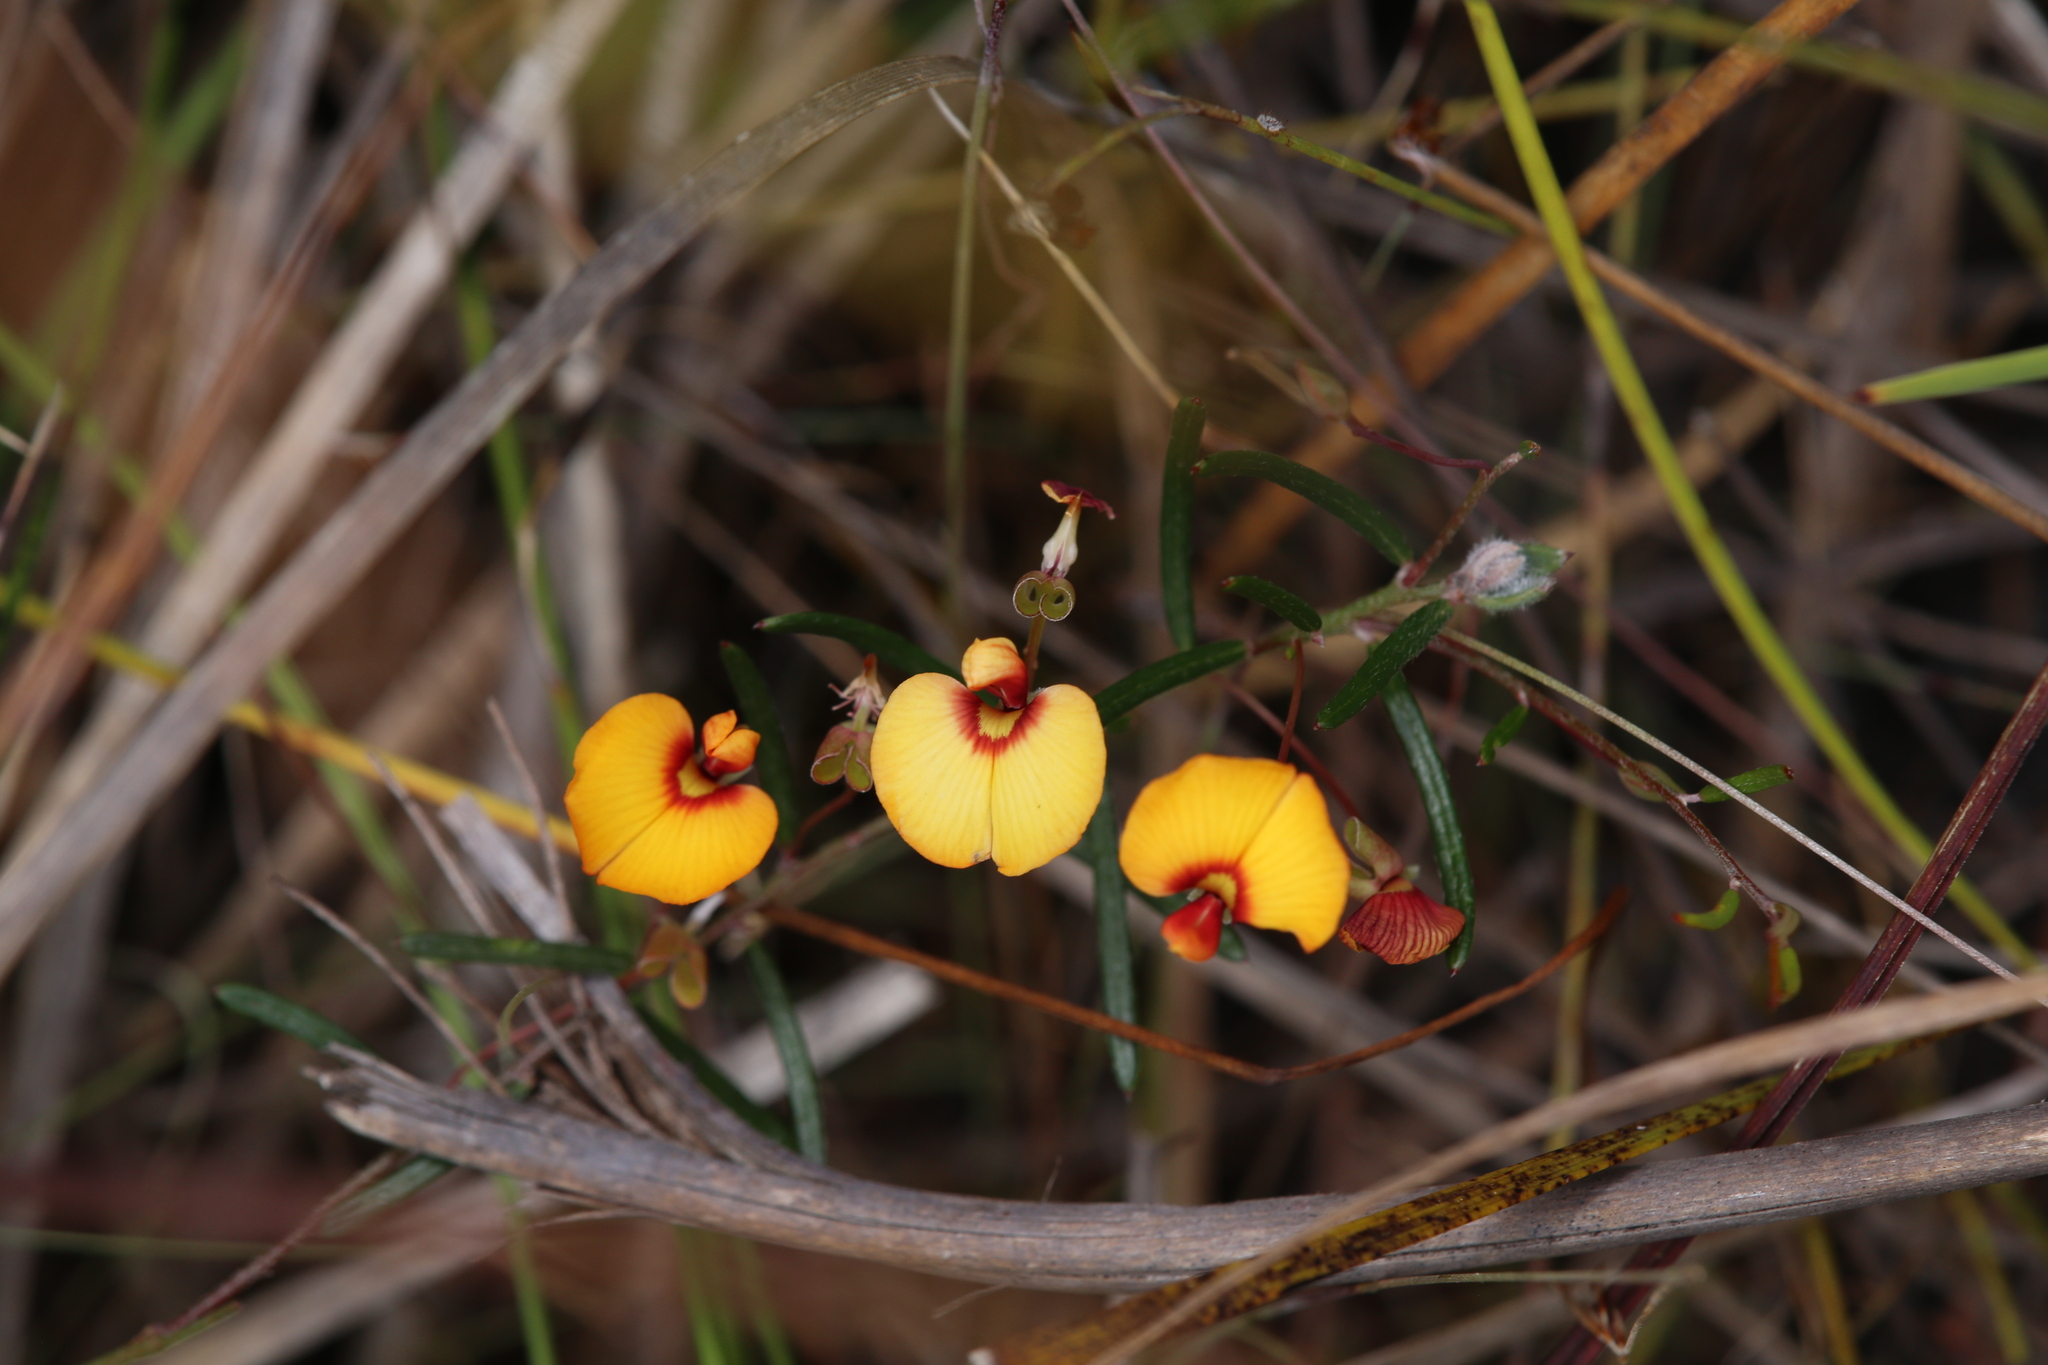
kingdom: Plantae
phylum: Tracheophyta
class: Magnoliopsida
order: Fabales
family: Fabaceae
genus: Euchilopsis
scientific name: Euchilopsis linearis
